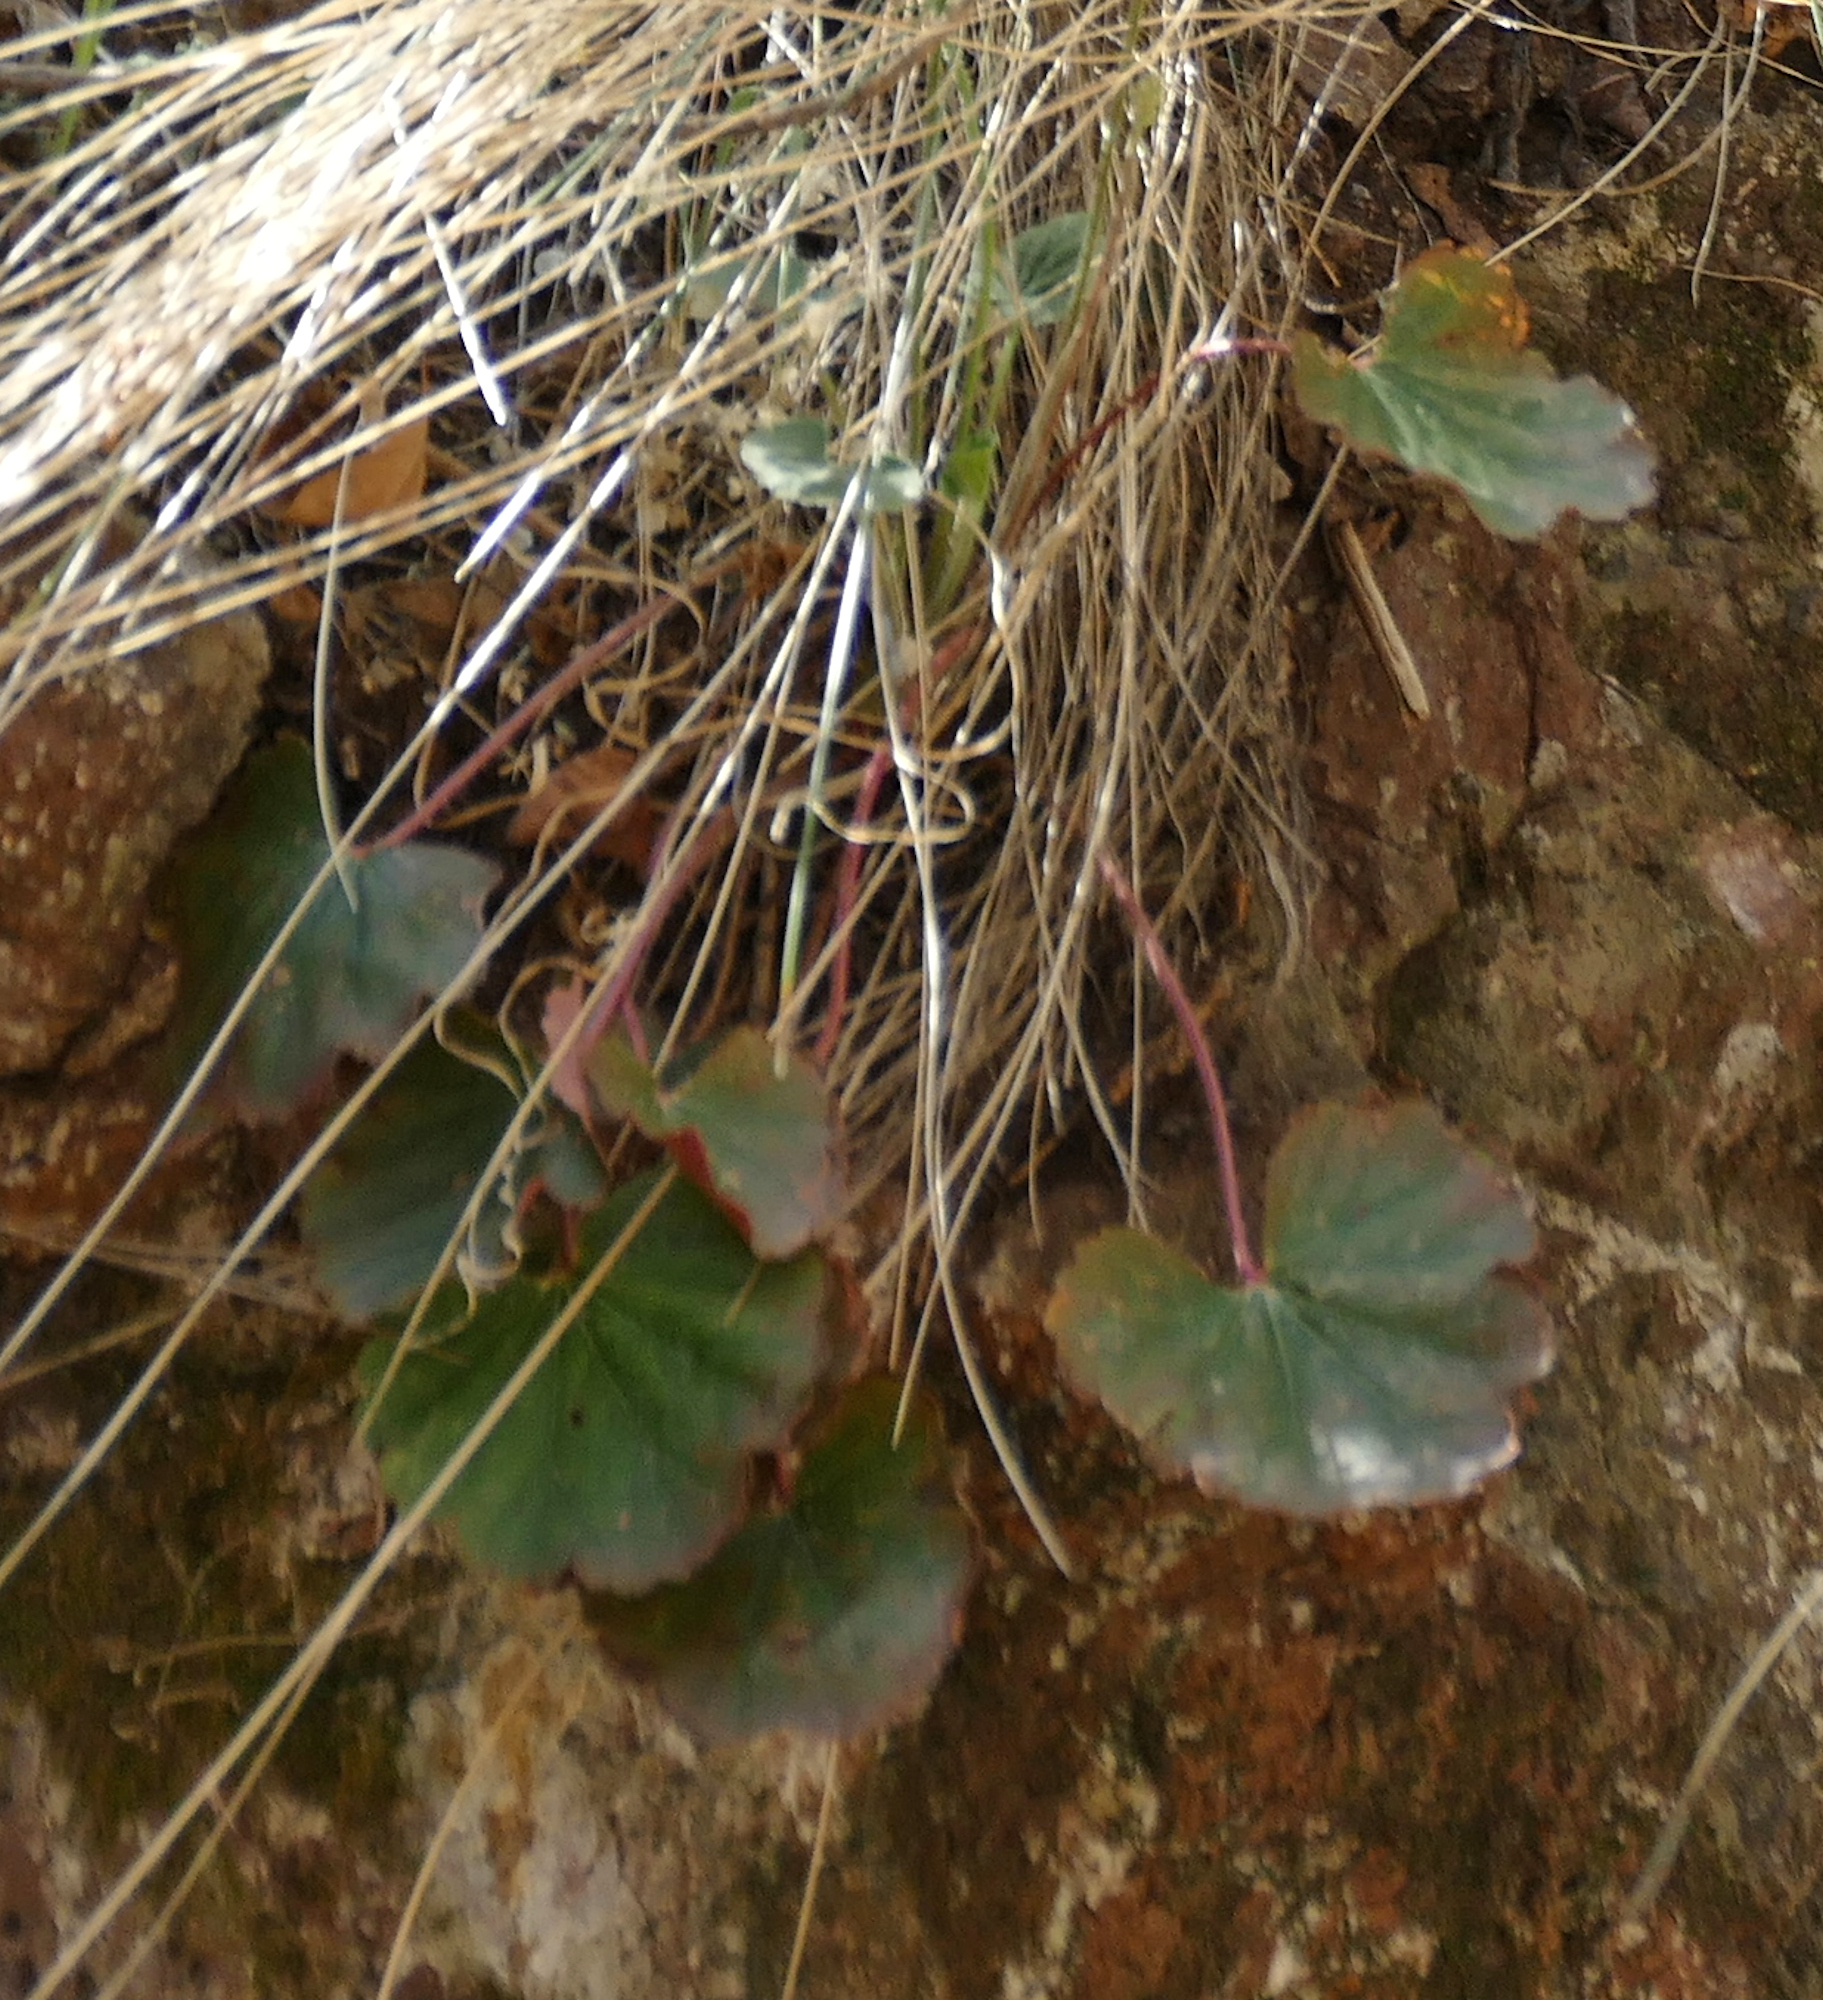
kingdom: Plantae
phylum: Tracheophyta
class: Magnoliopsida
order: Saxifragales
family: Saxifragaceae
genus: Heuchera
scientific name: Heuchera novomexicana
